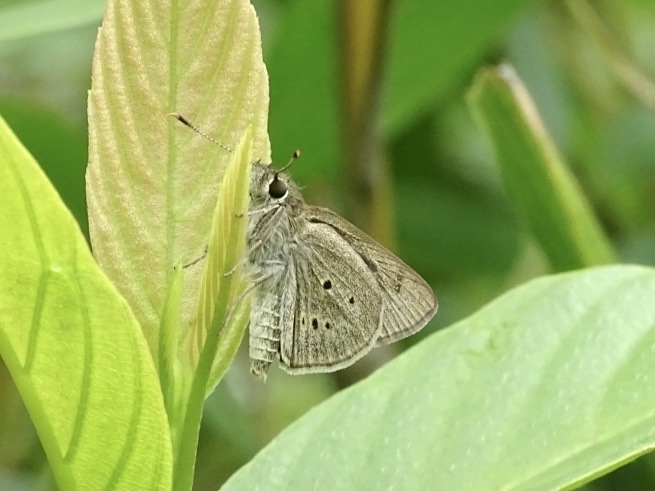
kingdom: Animalia
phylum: Arthropoda
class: Insecta
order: Lepidoptera
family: Hesperiidae
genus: Suastus
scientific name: Suastus gremius
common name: Indian palm bob
